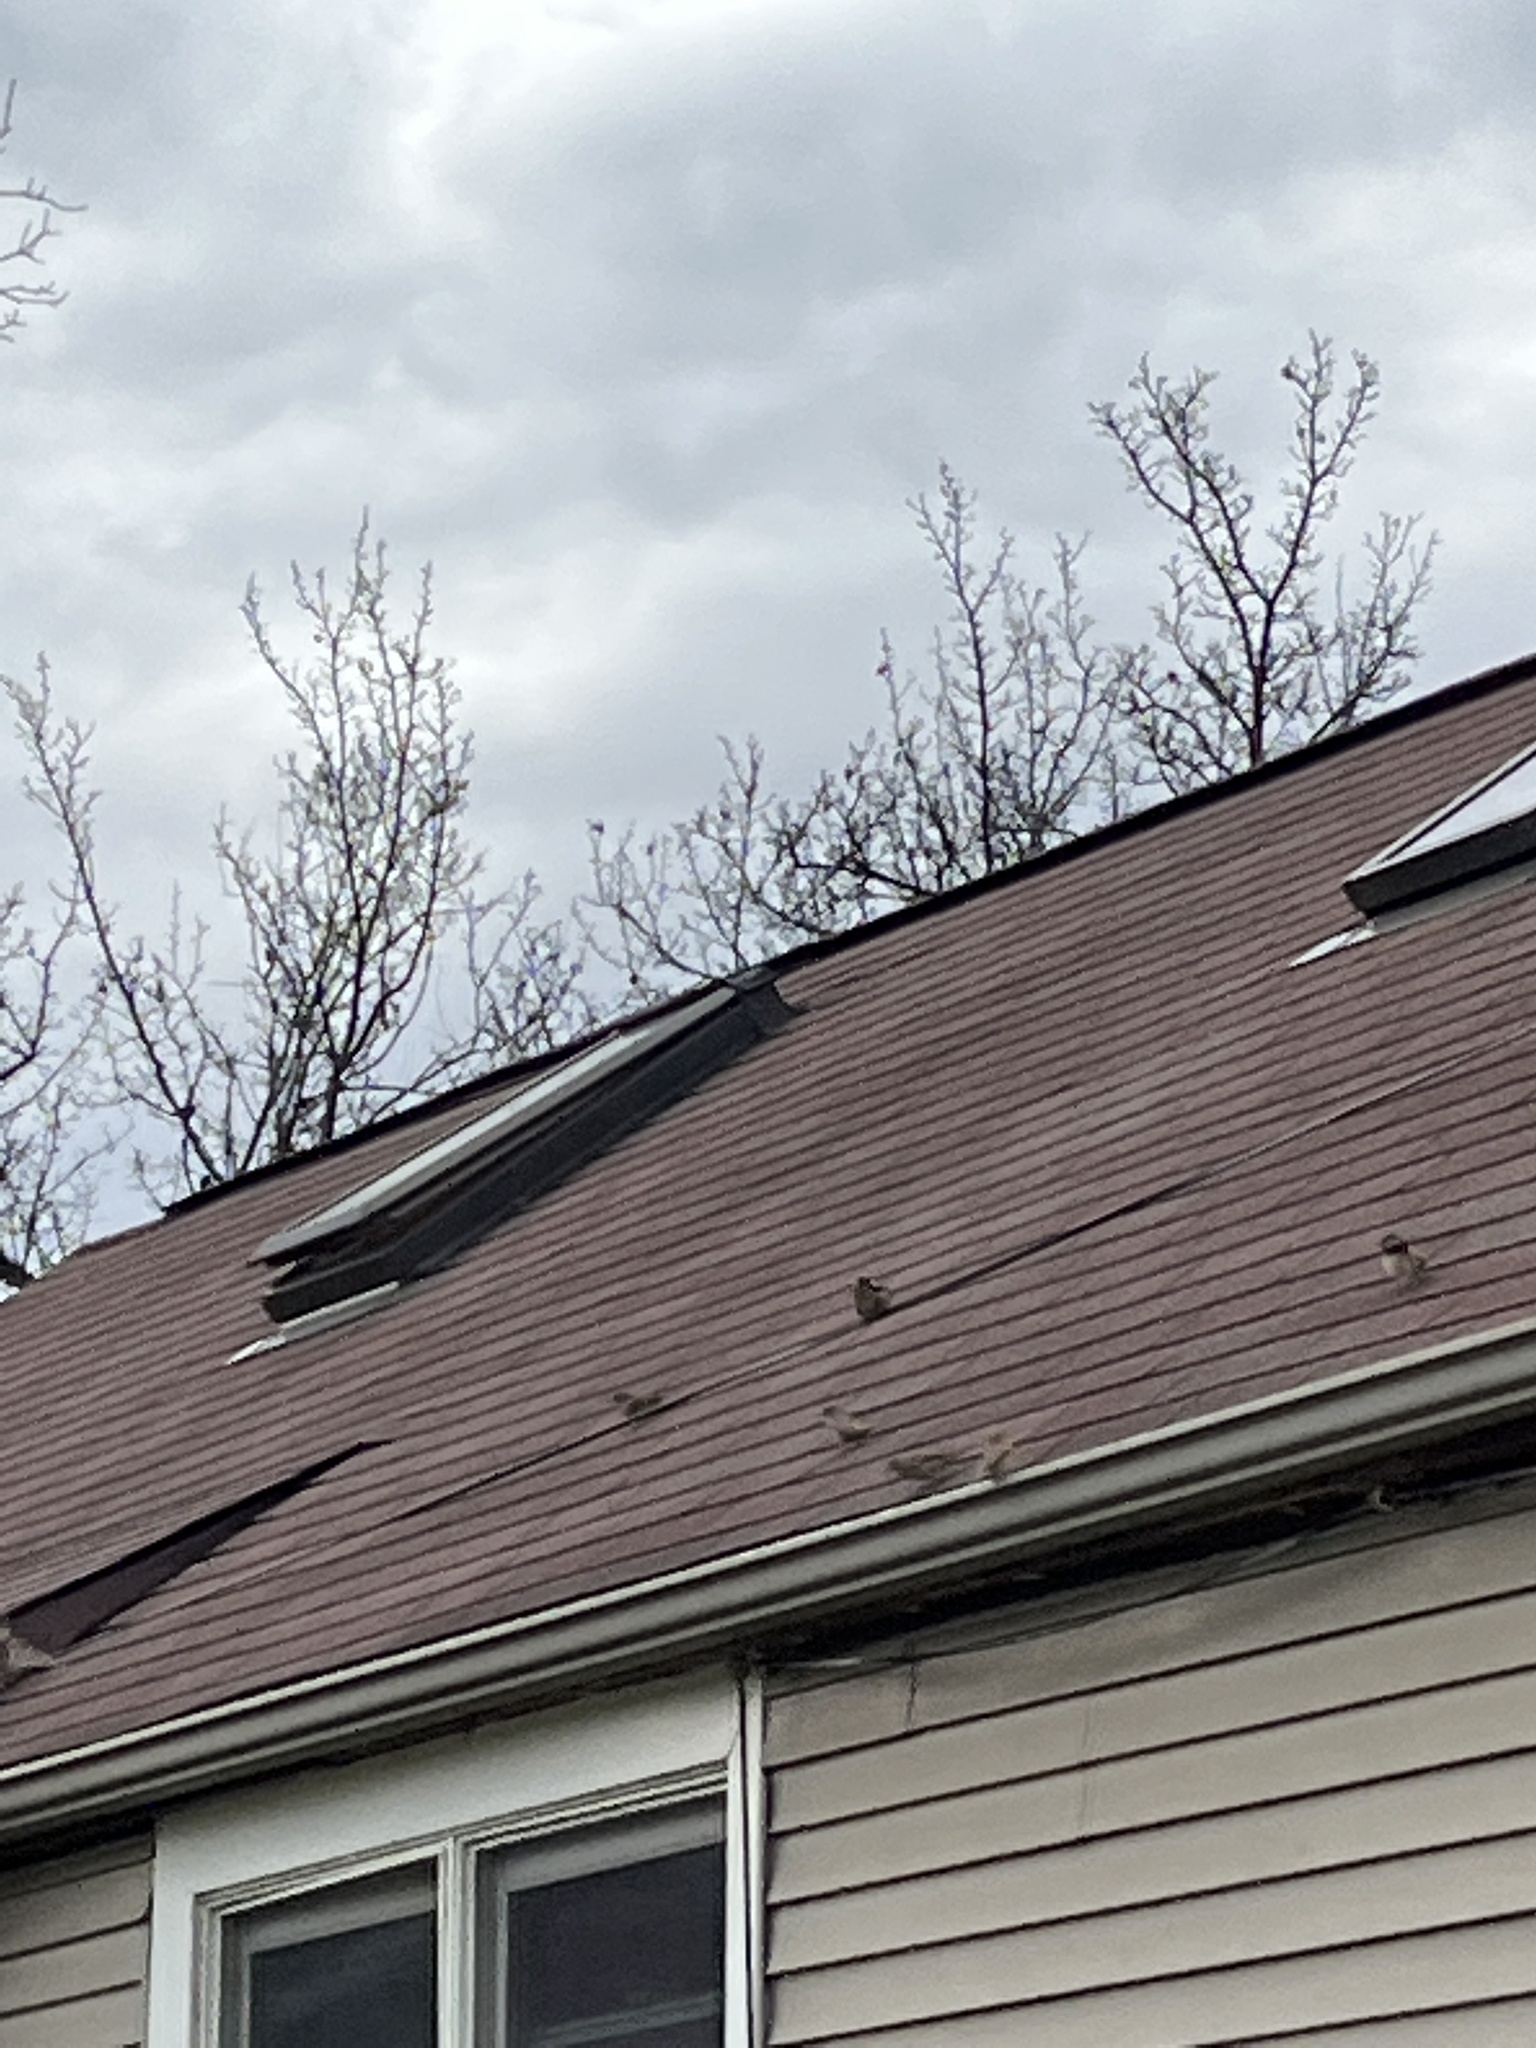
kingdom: Animalia
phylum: Chordata
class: Aves
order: Passeriformes
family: Passeridae
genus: Passer
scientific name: Passer domesticus
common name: House sparrow
